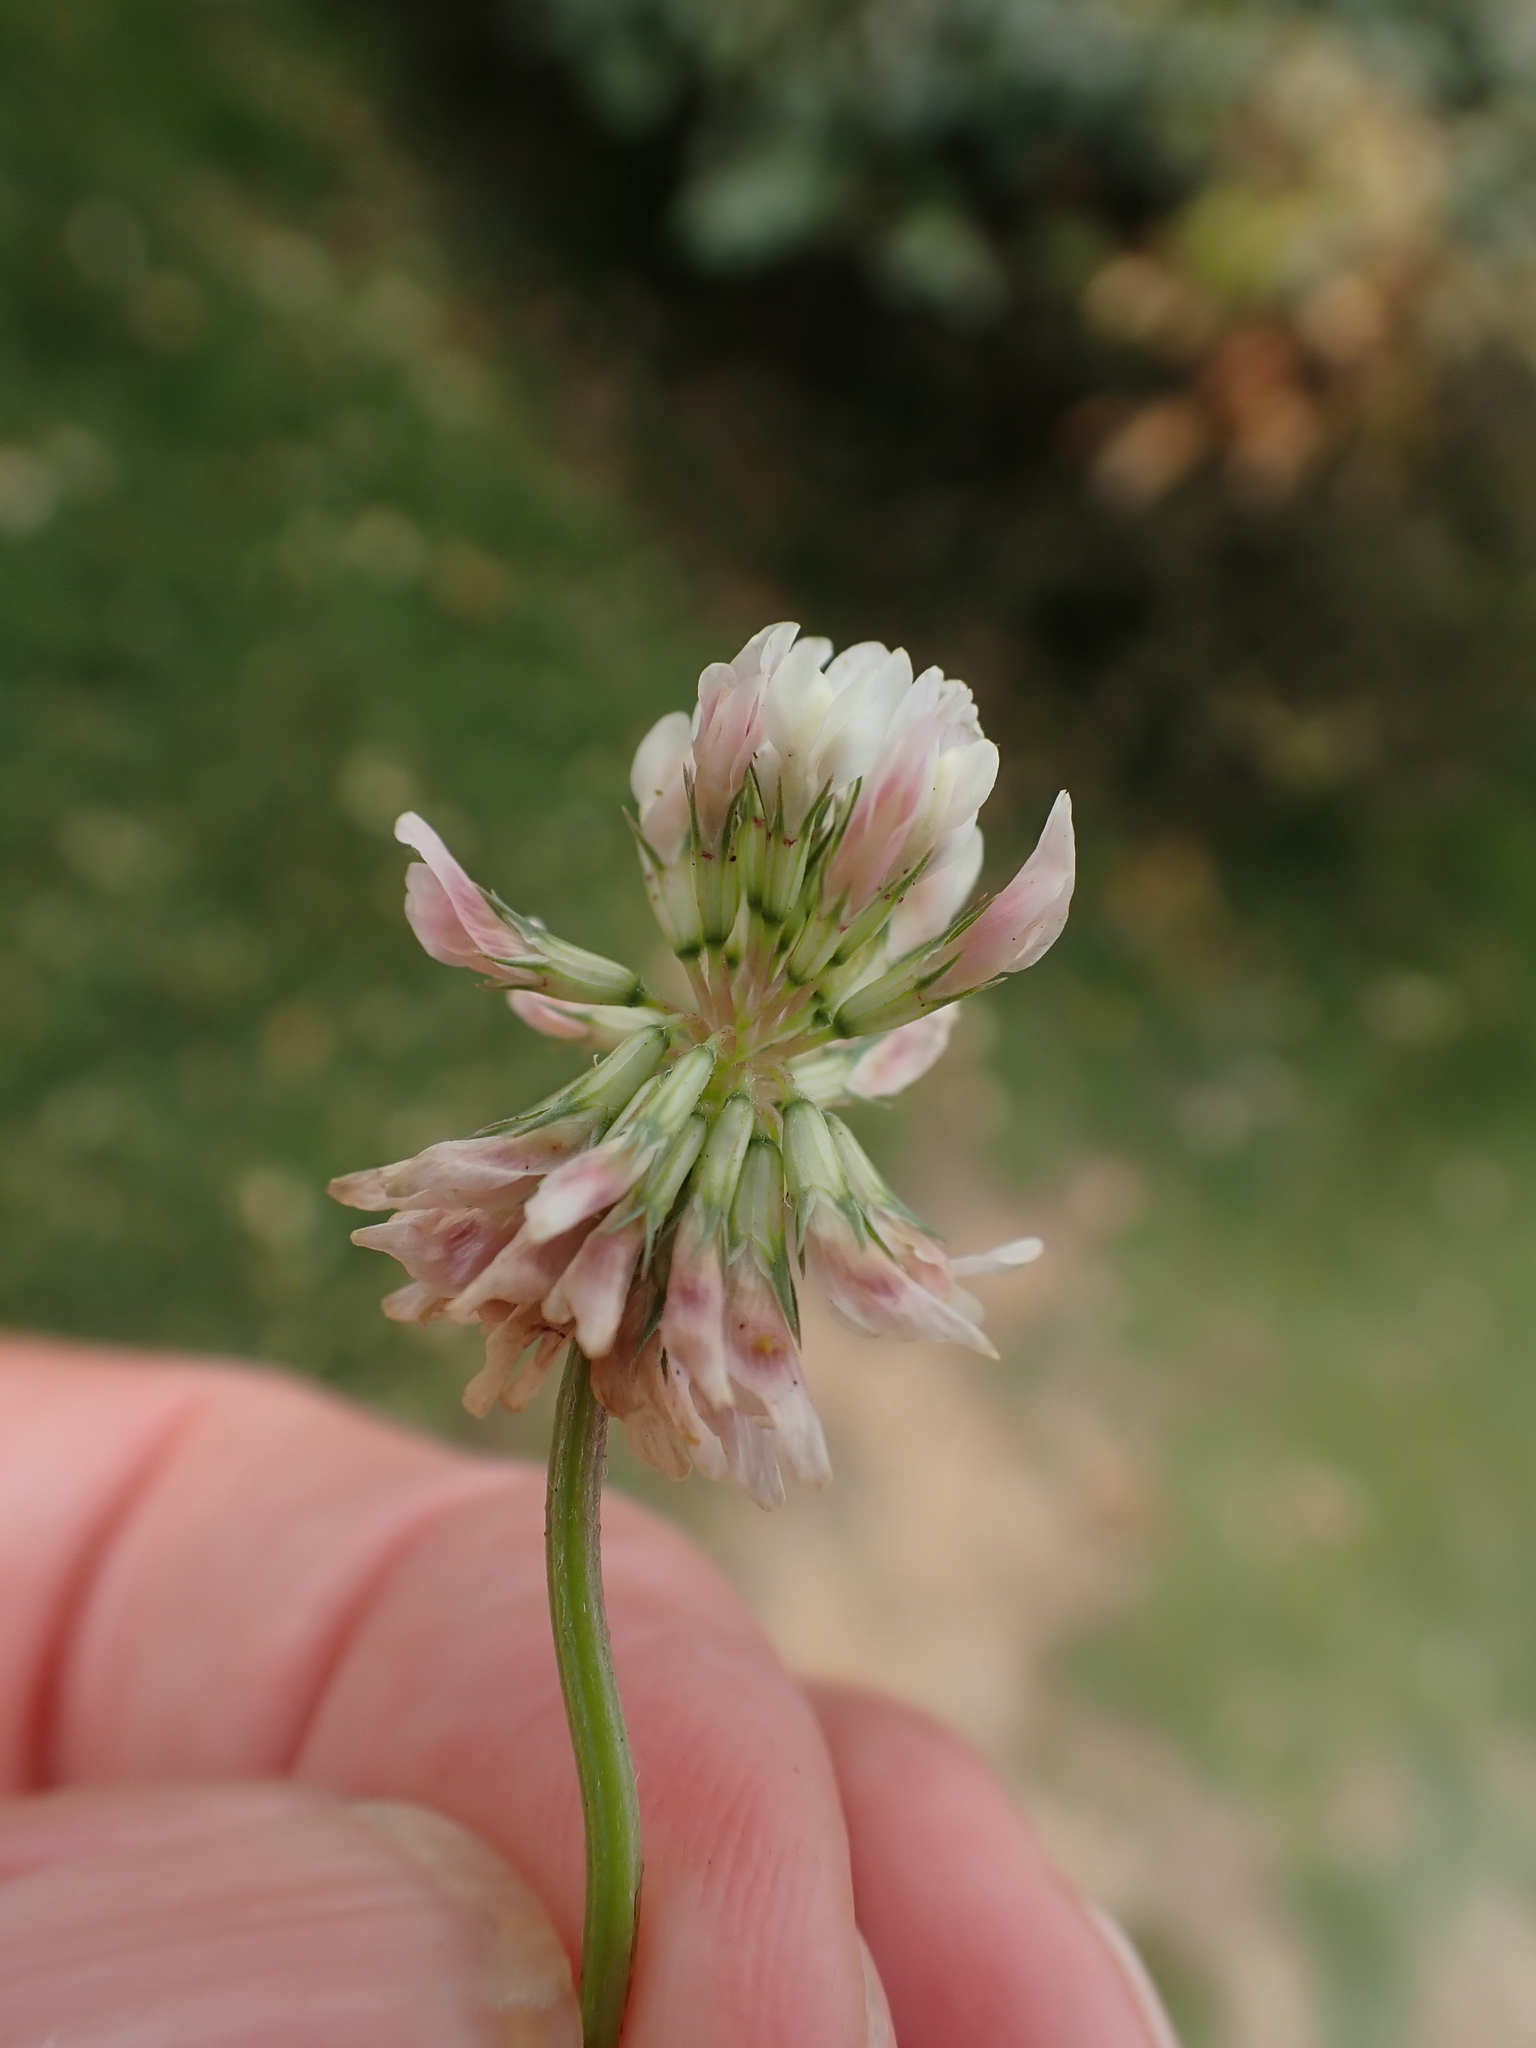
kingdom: Plantae
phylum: Tracheophyta
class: Magnoliopsida
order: Fabales
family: Fabaceae
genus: Trifolium
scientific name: Trifolium repens
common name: White clover
